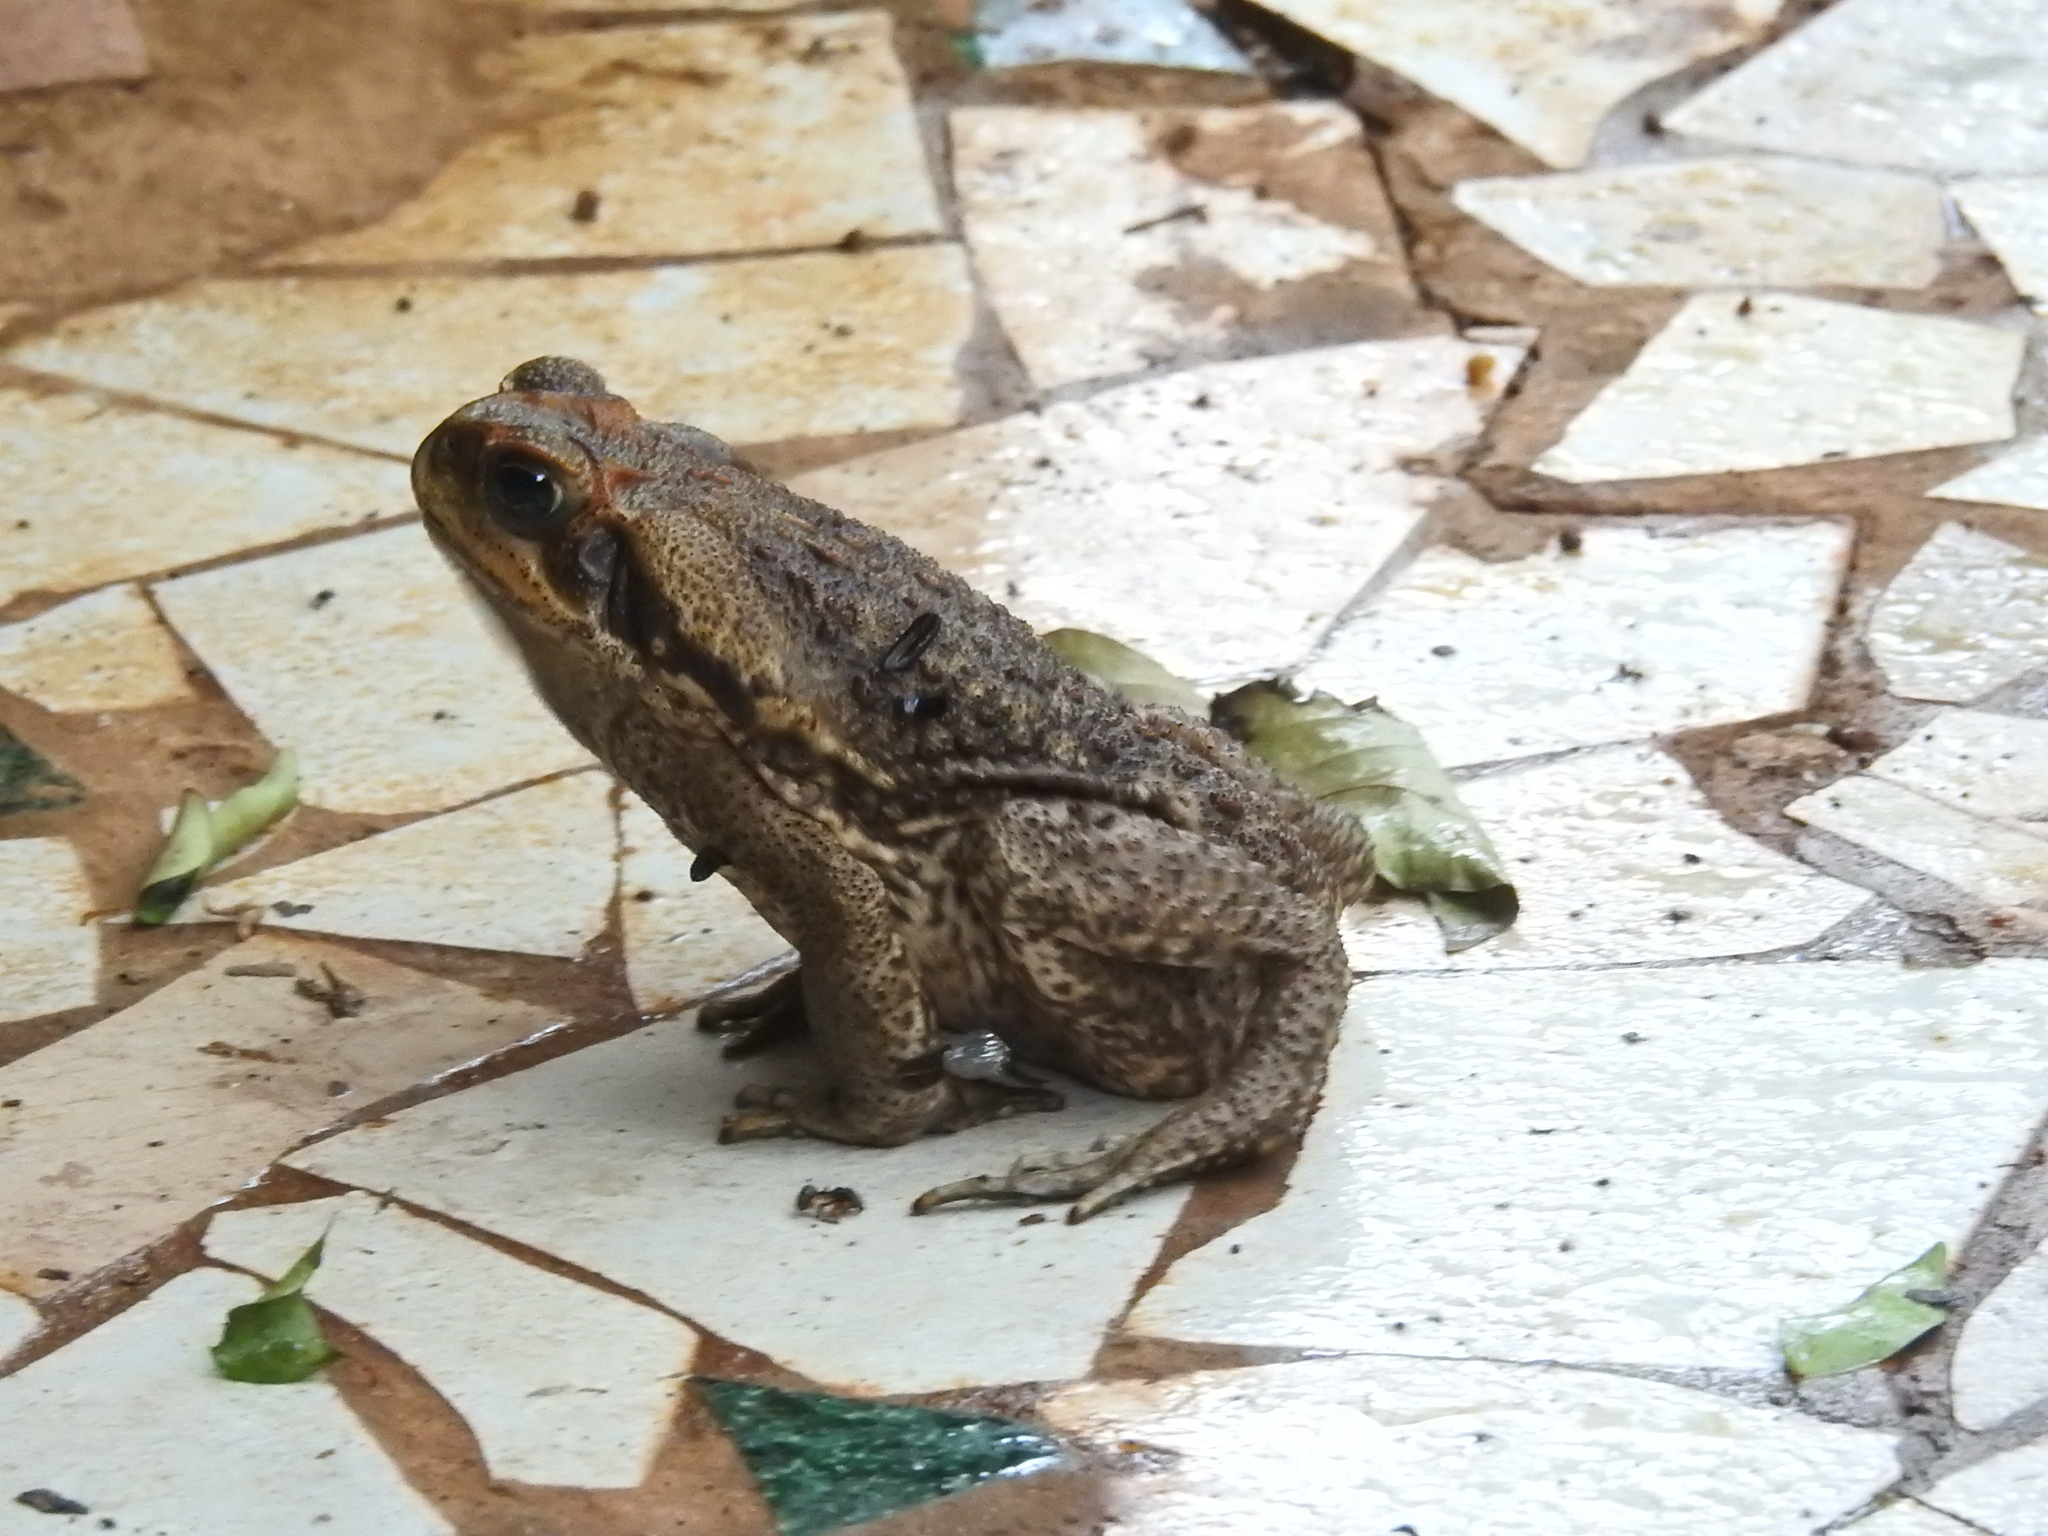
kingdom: Animalia
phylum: Chordata
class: Amphibia
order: Anura
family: Bufonidae
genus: Rhinella
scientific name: Rhinella diptycha
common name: Cope's toad
